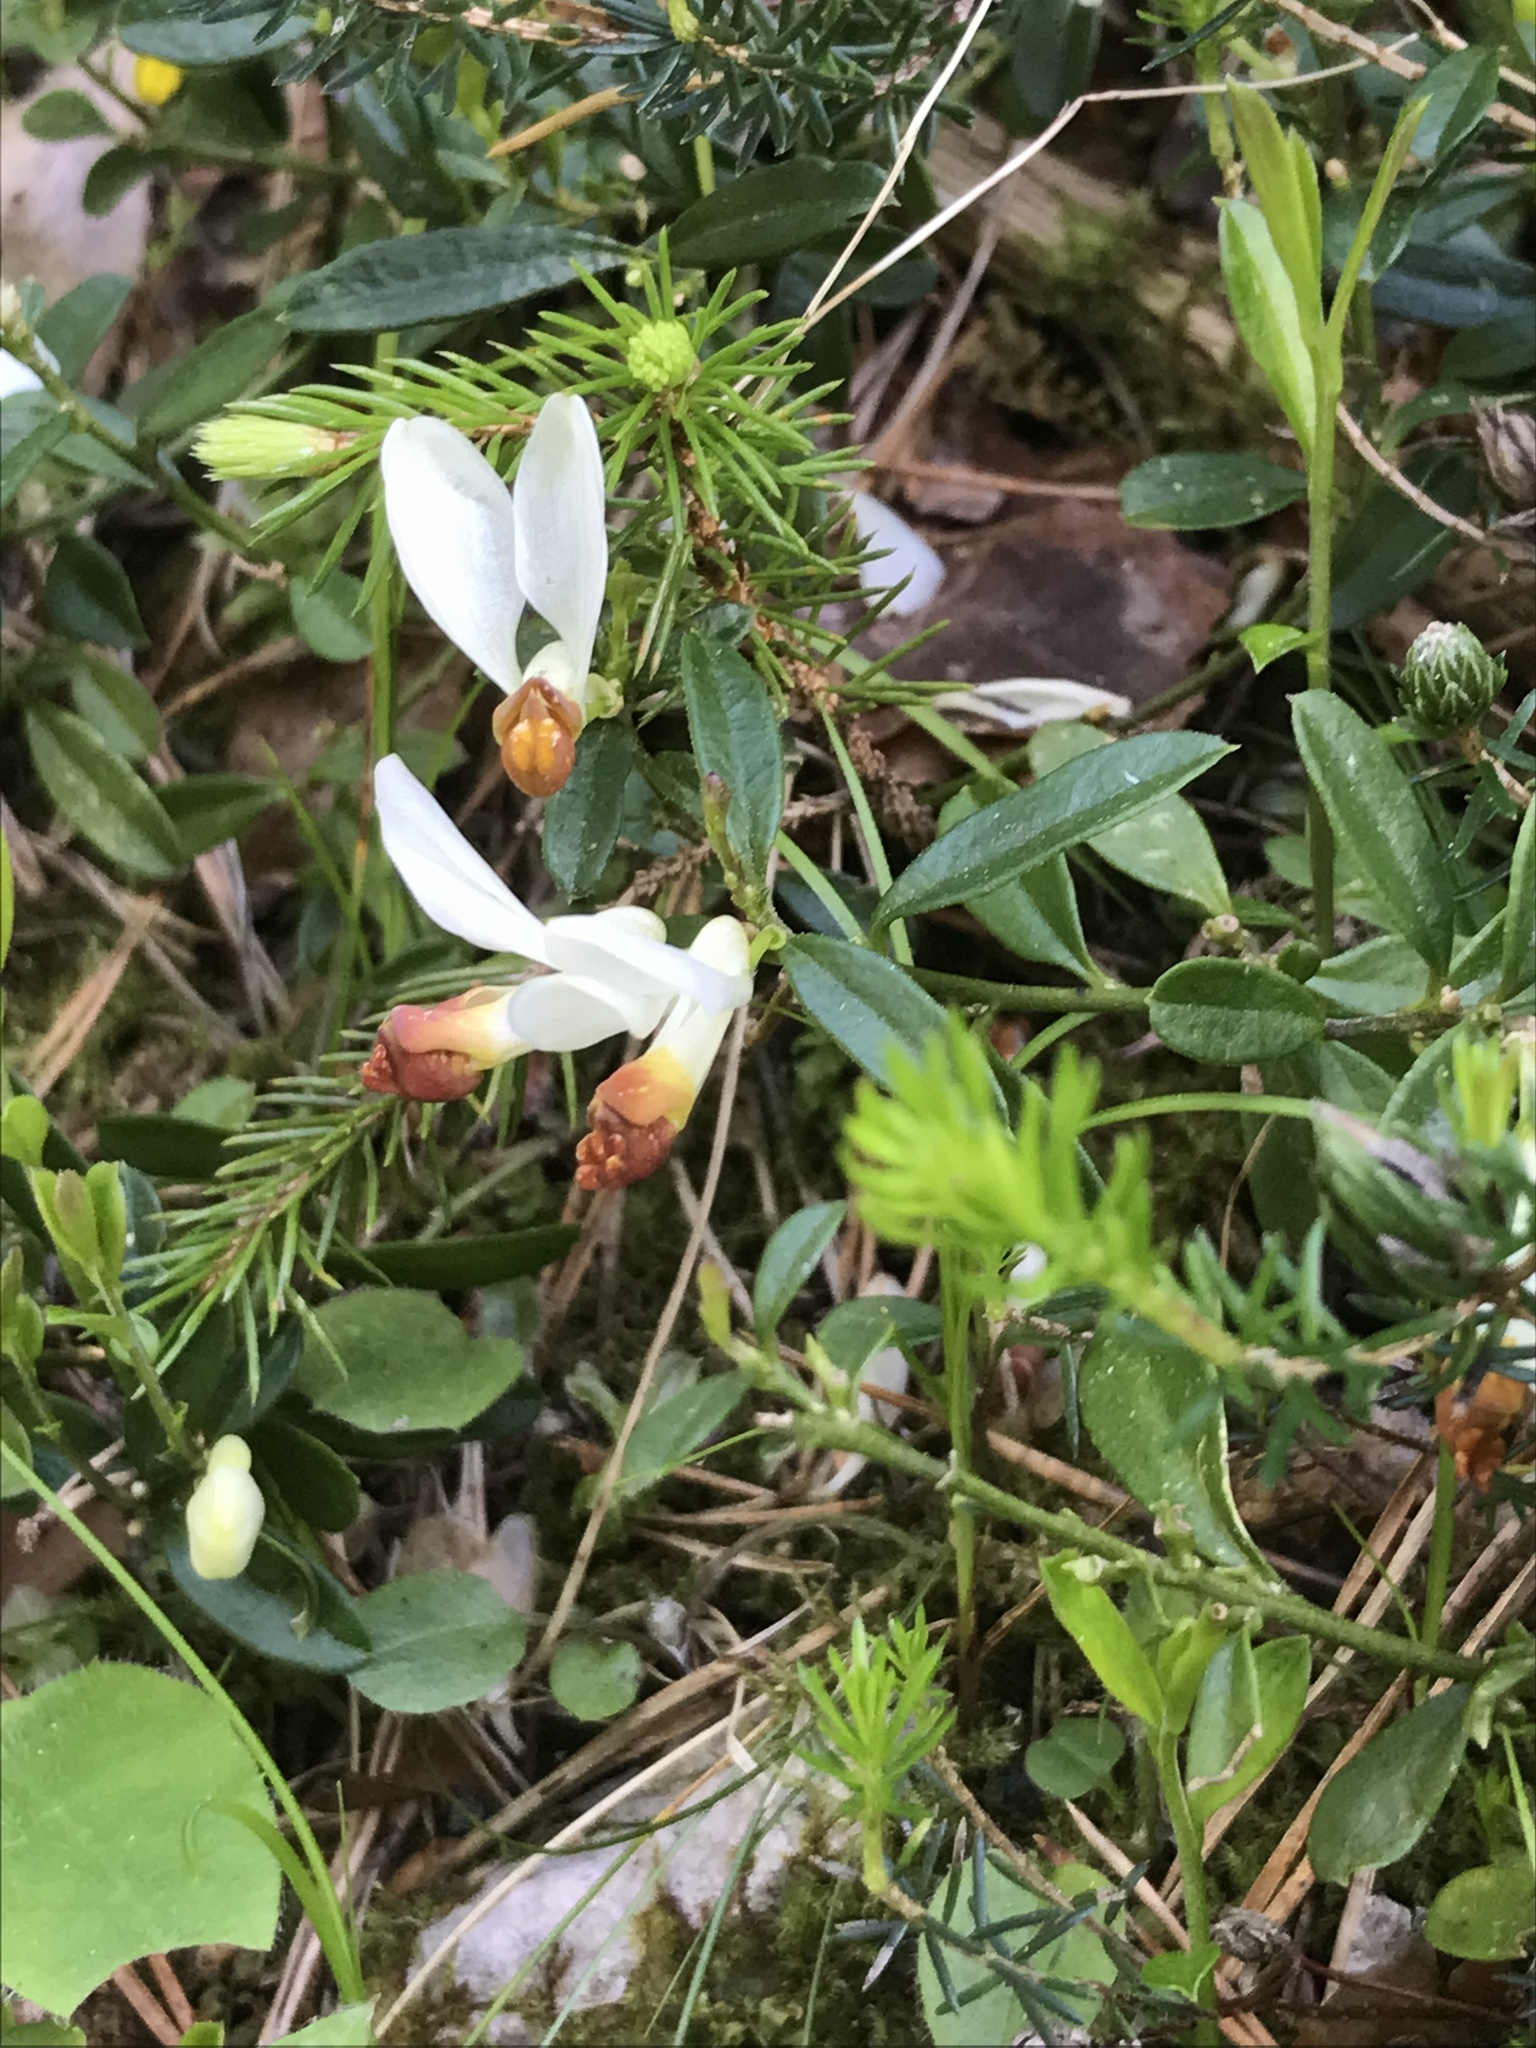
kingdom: Plantae
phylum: Tracheophyta
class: Magnoliopsida
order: Fabales
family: Polygalaceae
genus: Polygaloides
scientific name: Polygaloides chamaebuxus
